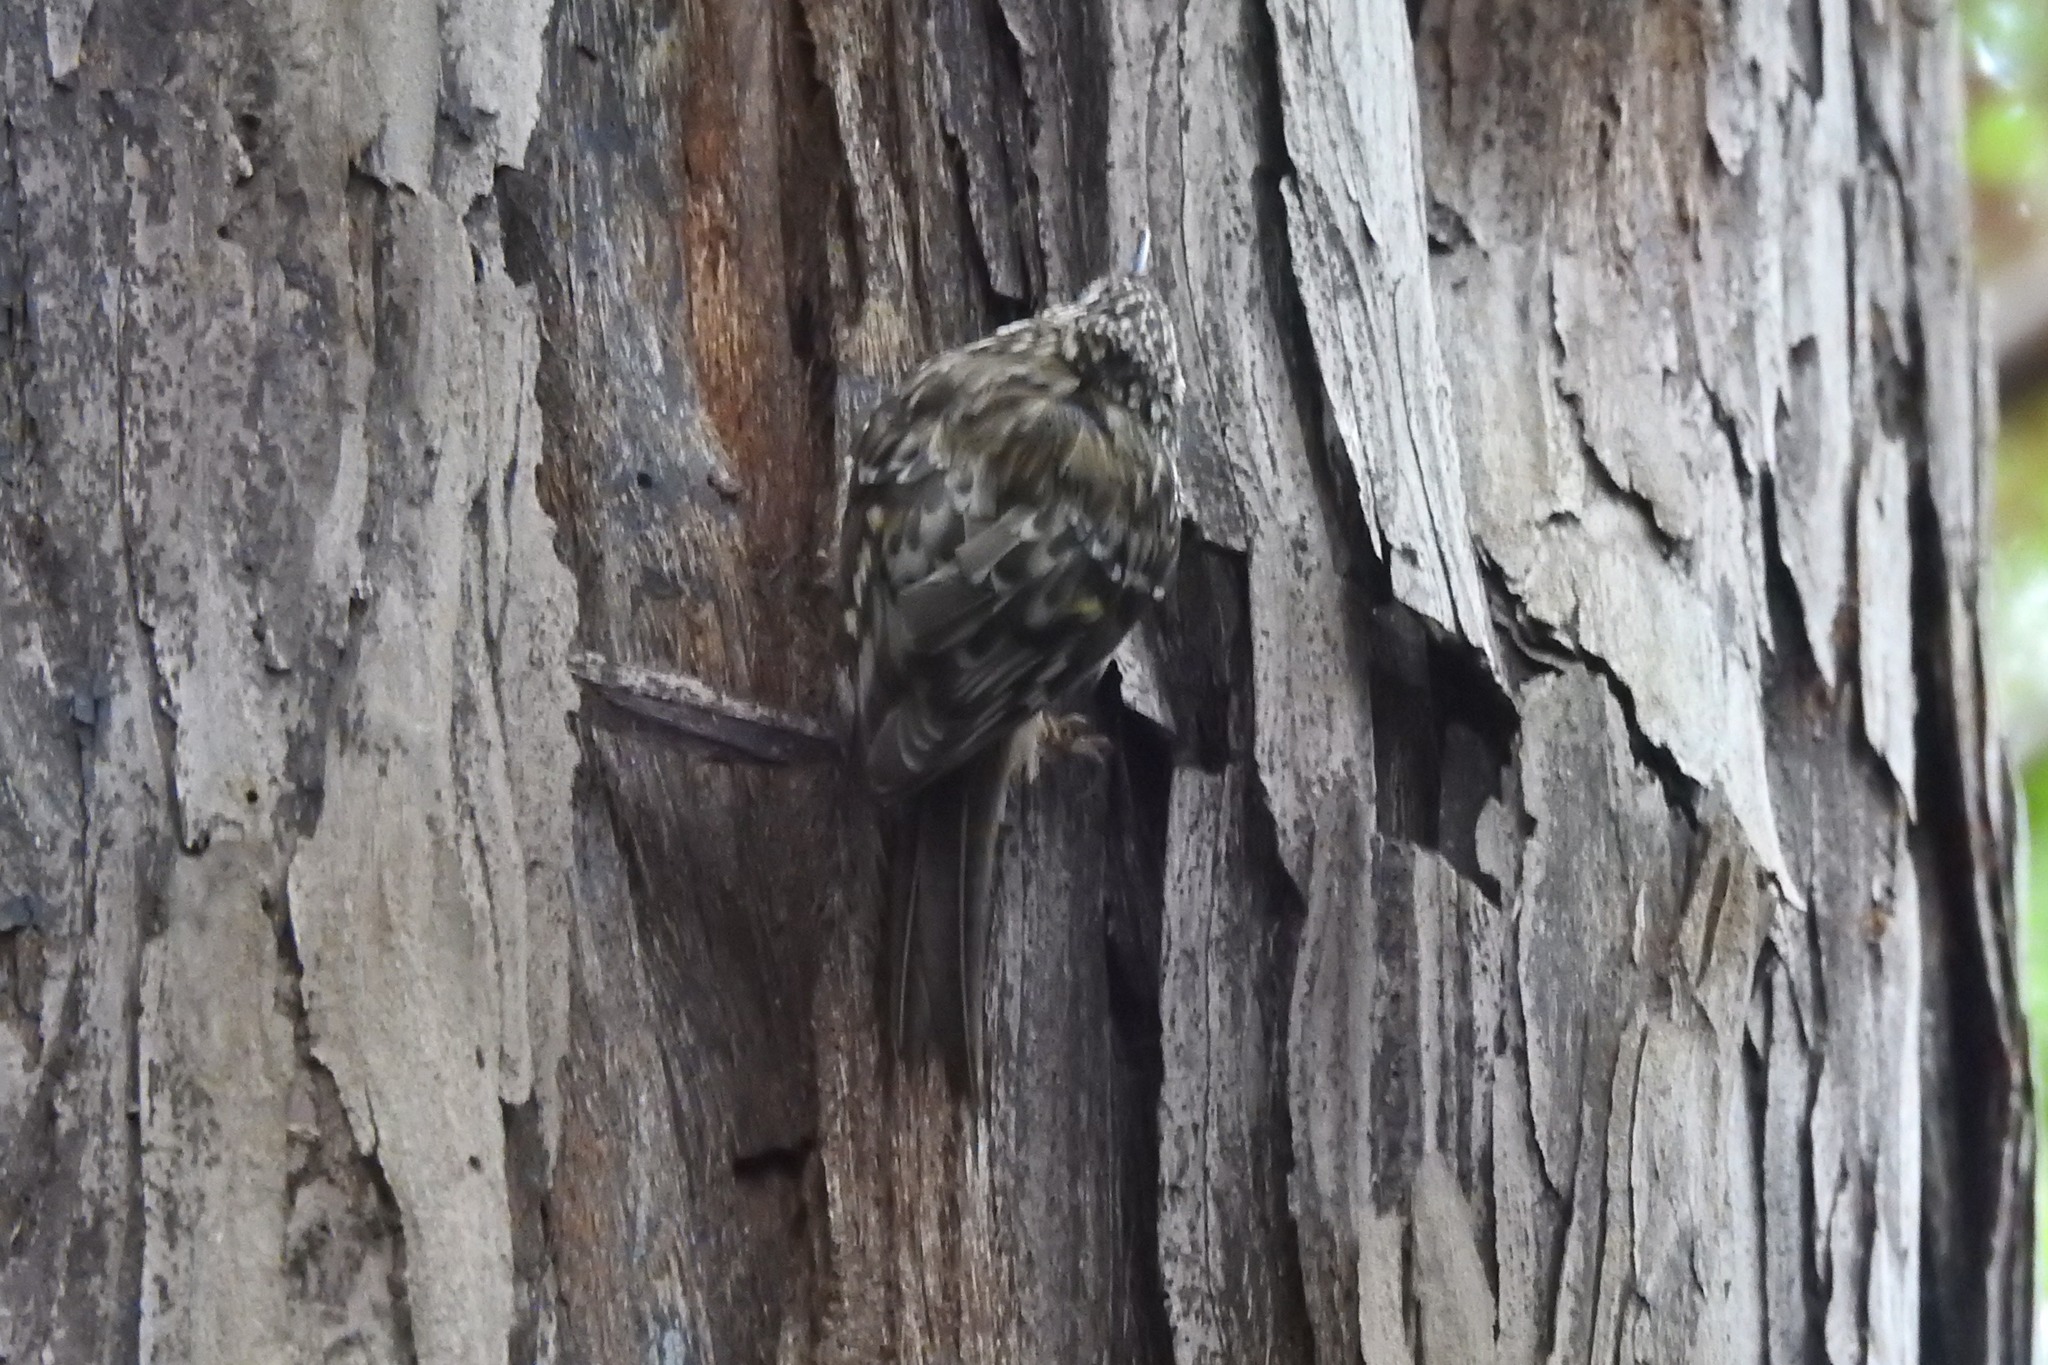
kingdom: Animalia
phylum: Chordata
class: Aves
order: Passeriformes
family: Certhiidae
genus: Certhia
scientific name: Certhia americana
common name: Brown creeper
